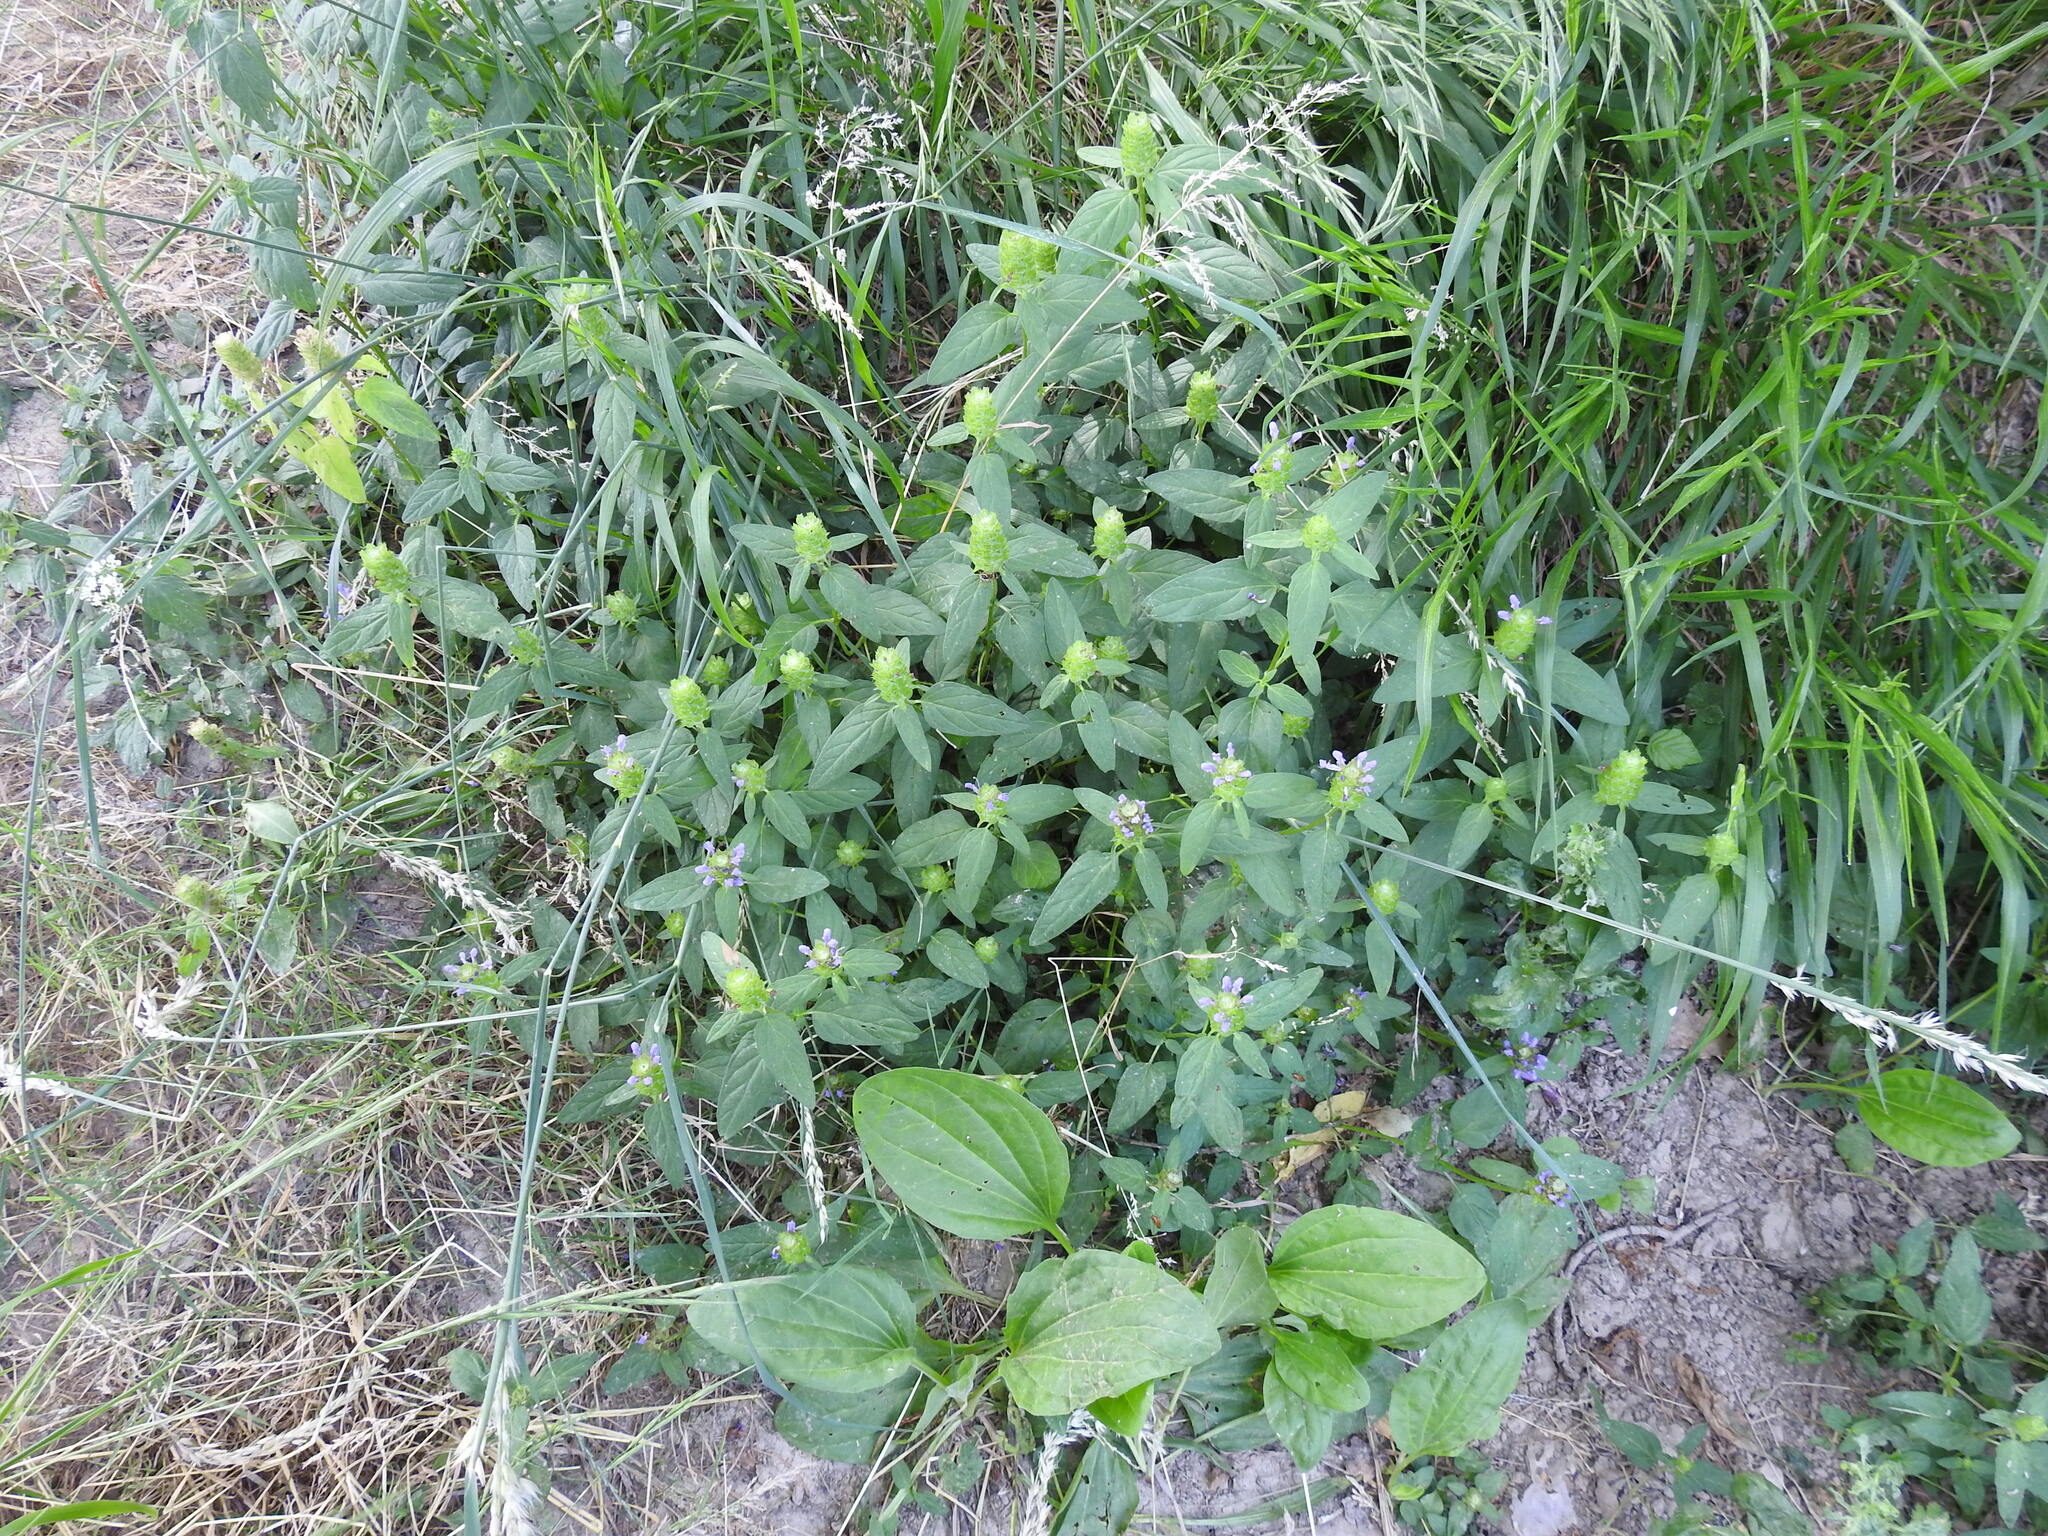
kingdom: Plantae
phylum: Tracheophyta
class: Magnoliopsida
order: Lamiales
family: Lamiaceae
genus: Prunella
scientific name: Prunella vulgaris
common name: Heal-all
